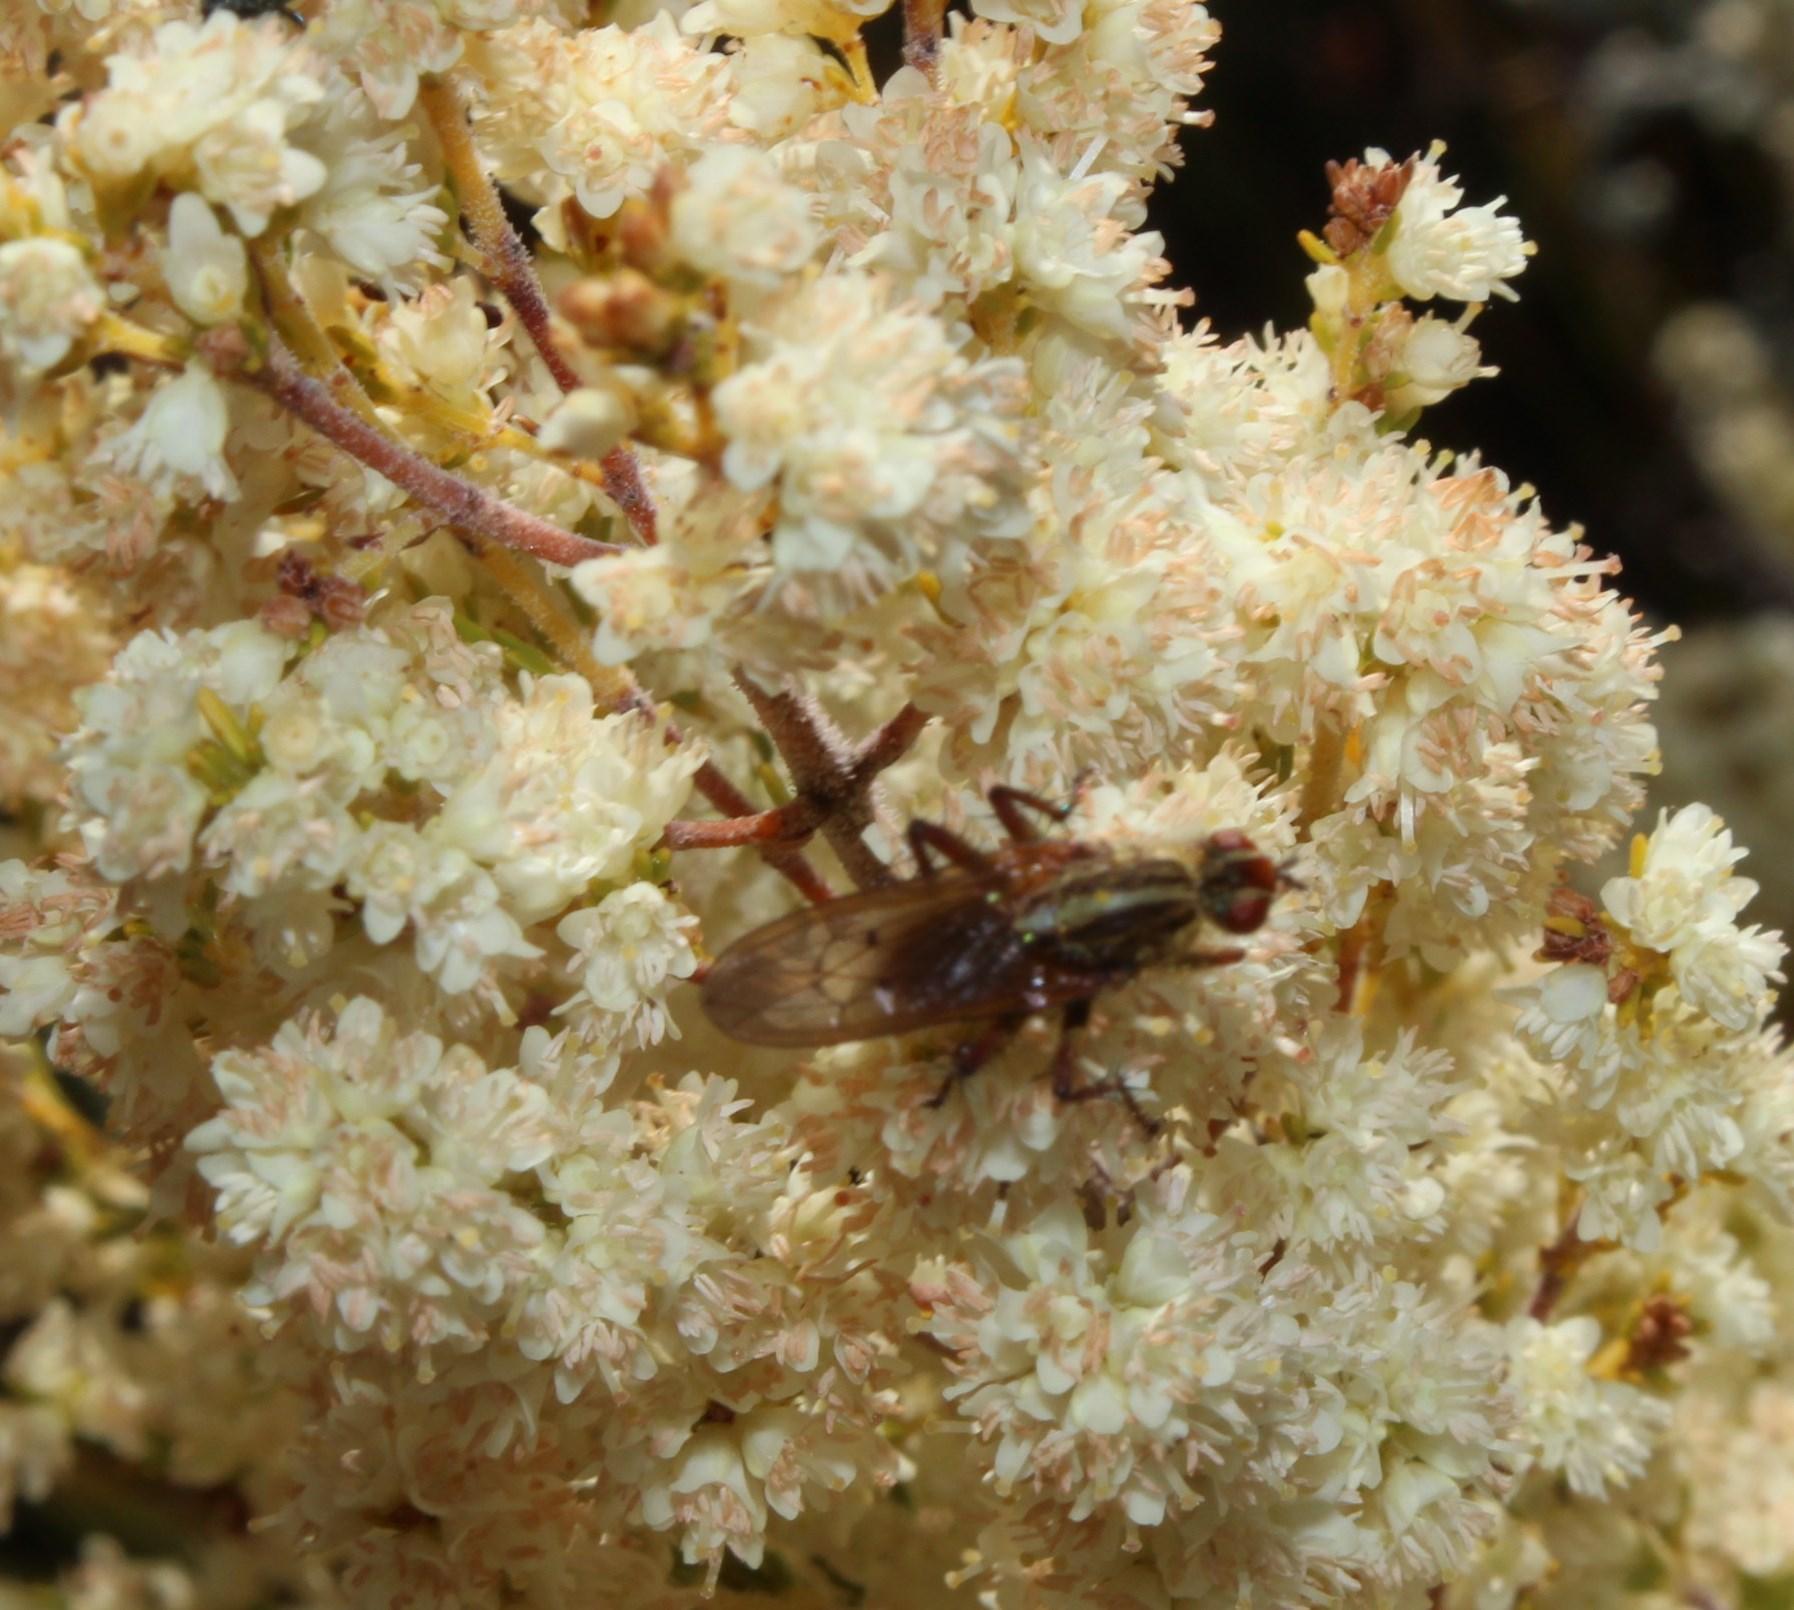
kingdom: Plantae
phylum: Tracheophyta
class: Magnoliopsida
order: Ericales
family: Ericaceae
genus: Erica
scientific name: Erica leucanthera
